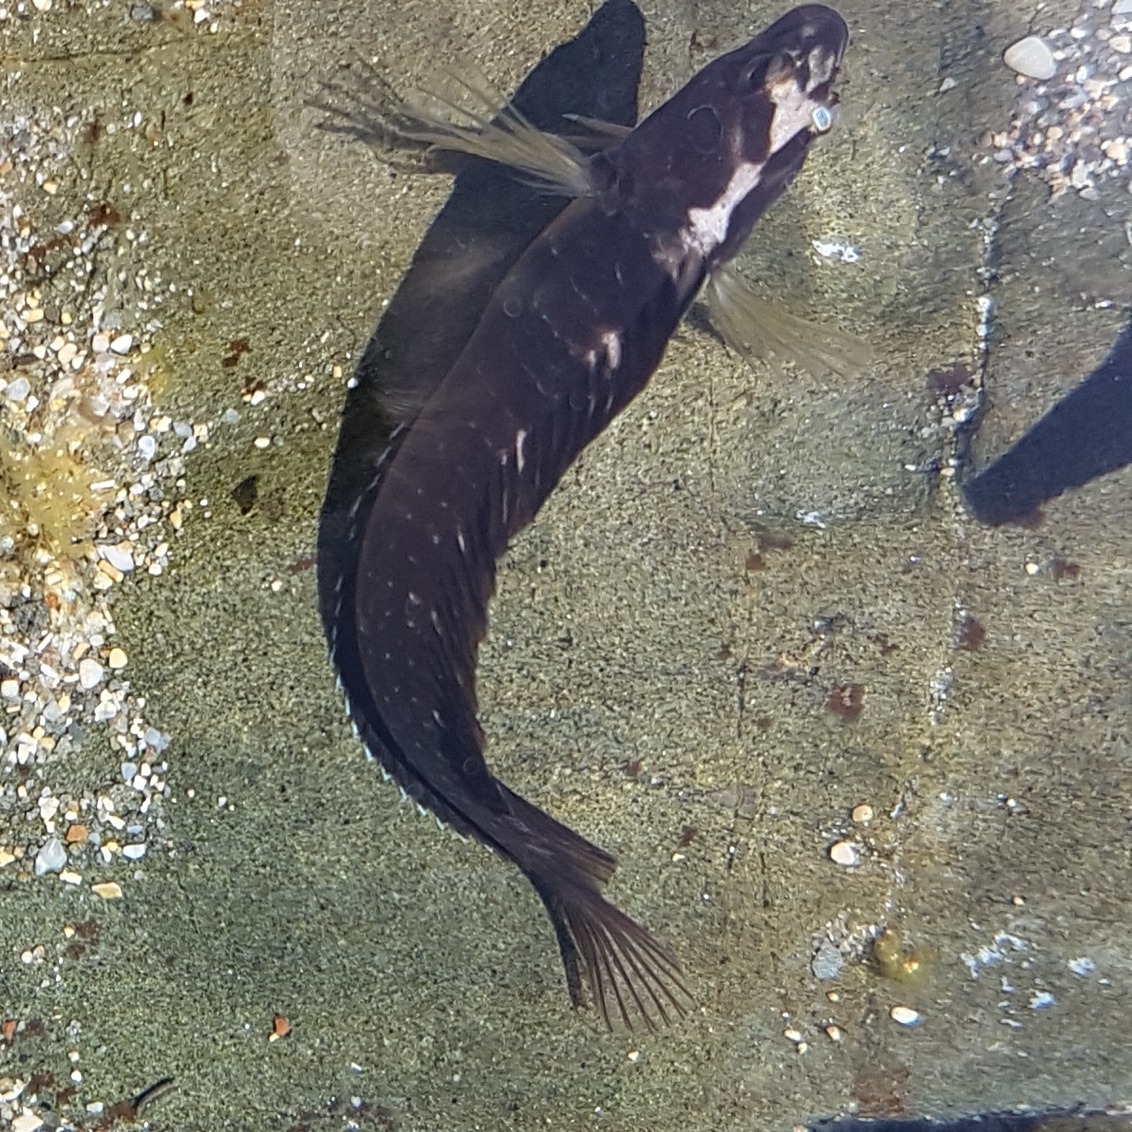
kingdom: Animalia
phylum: Chordata
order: Perciformes
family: Blenniidae
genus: Salaria
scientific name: Salaria pavo
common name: Peacock blenny
